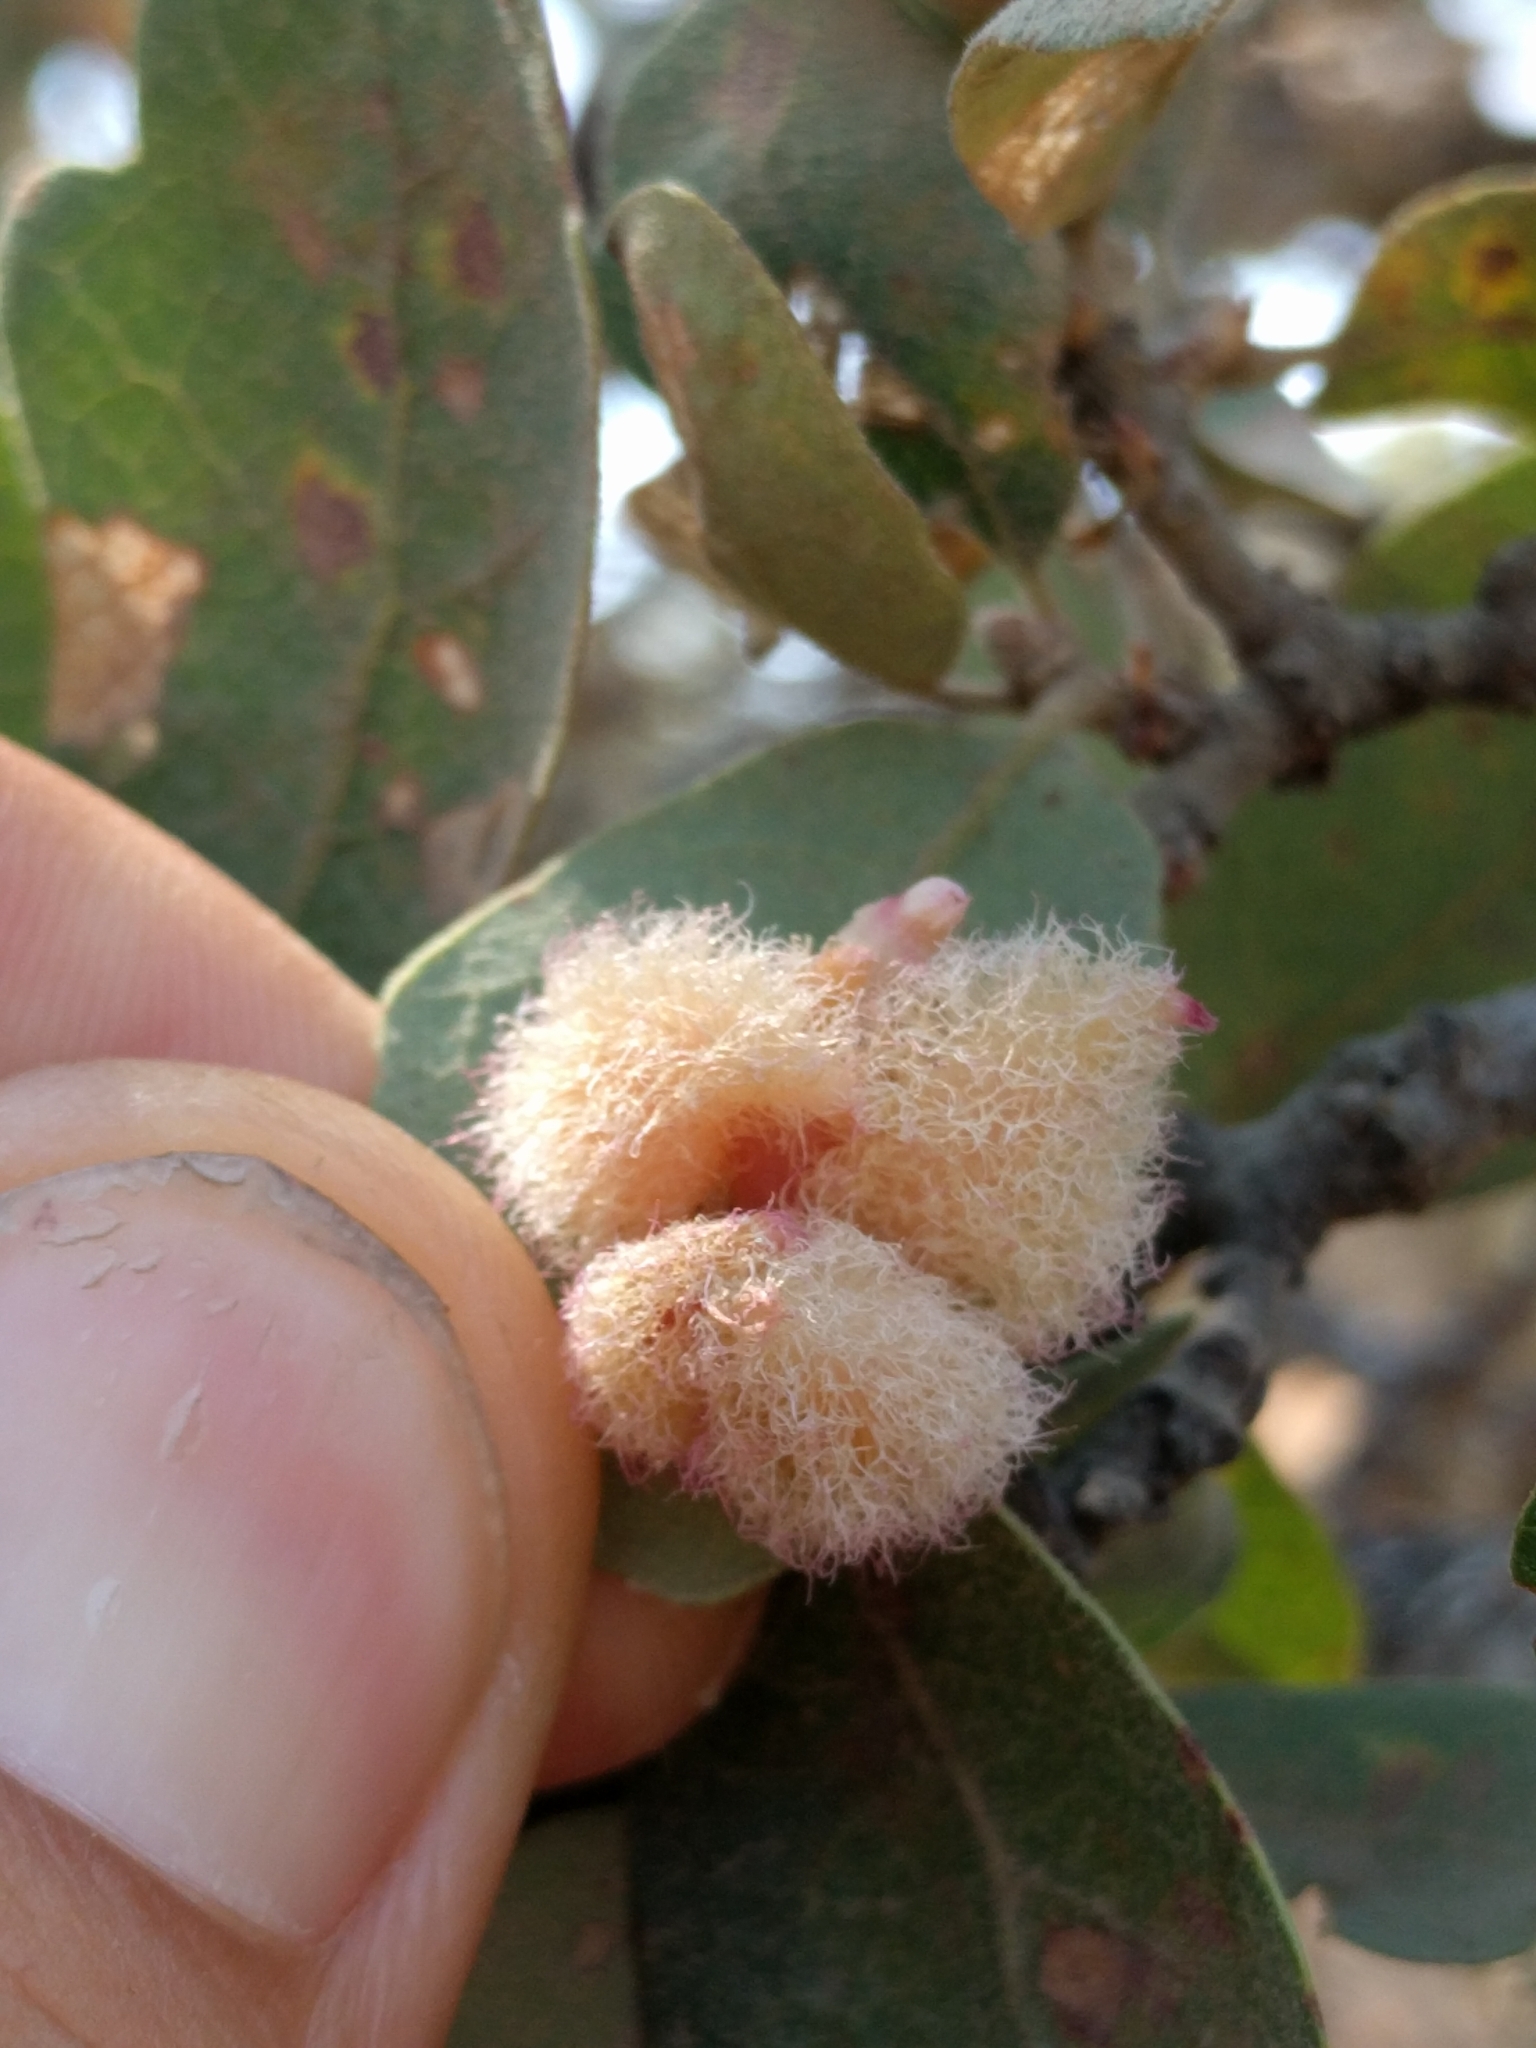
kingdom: Animalia
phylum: Arthropoda
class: Insecta
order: Hymenoptera
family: Cynipidae
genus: Andricus
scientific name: Andricus
